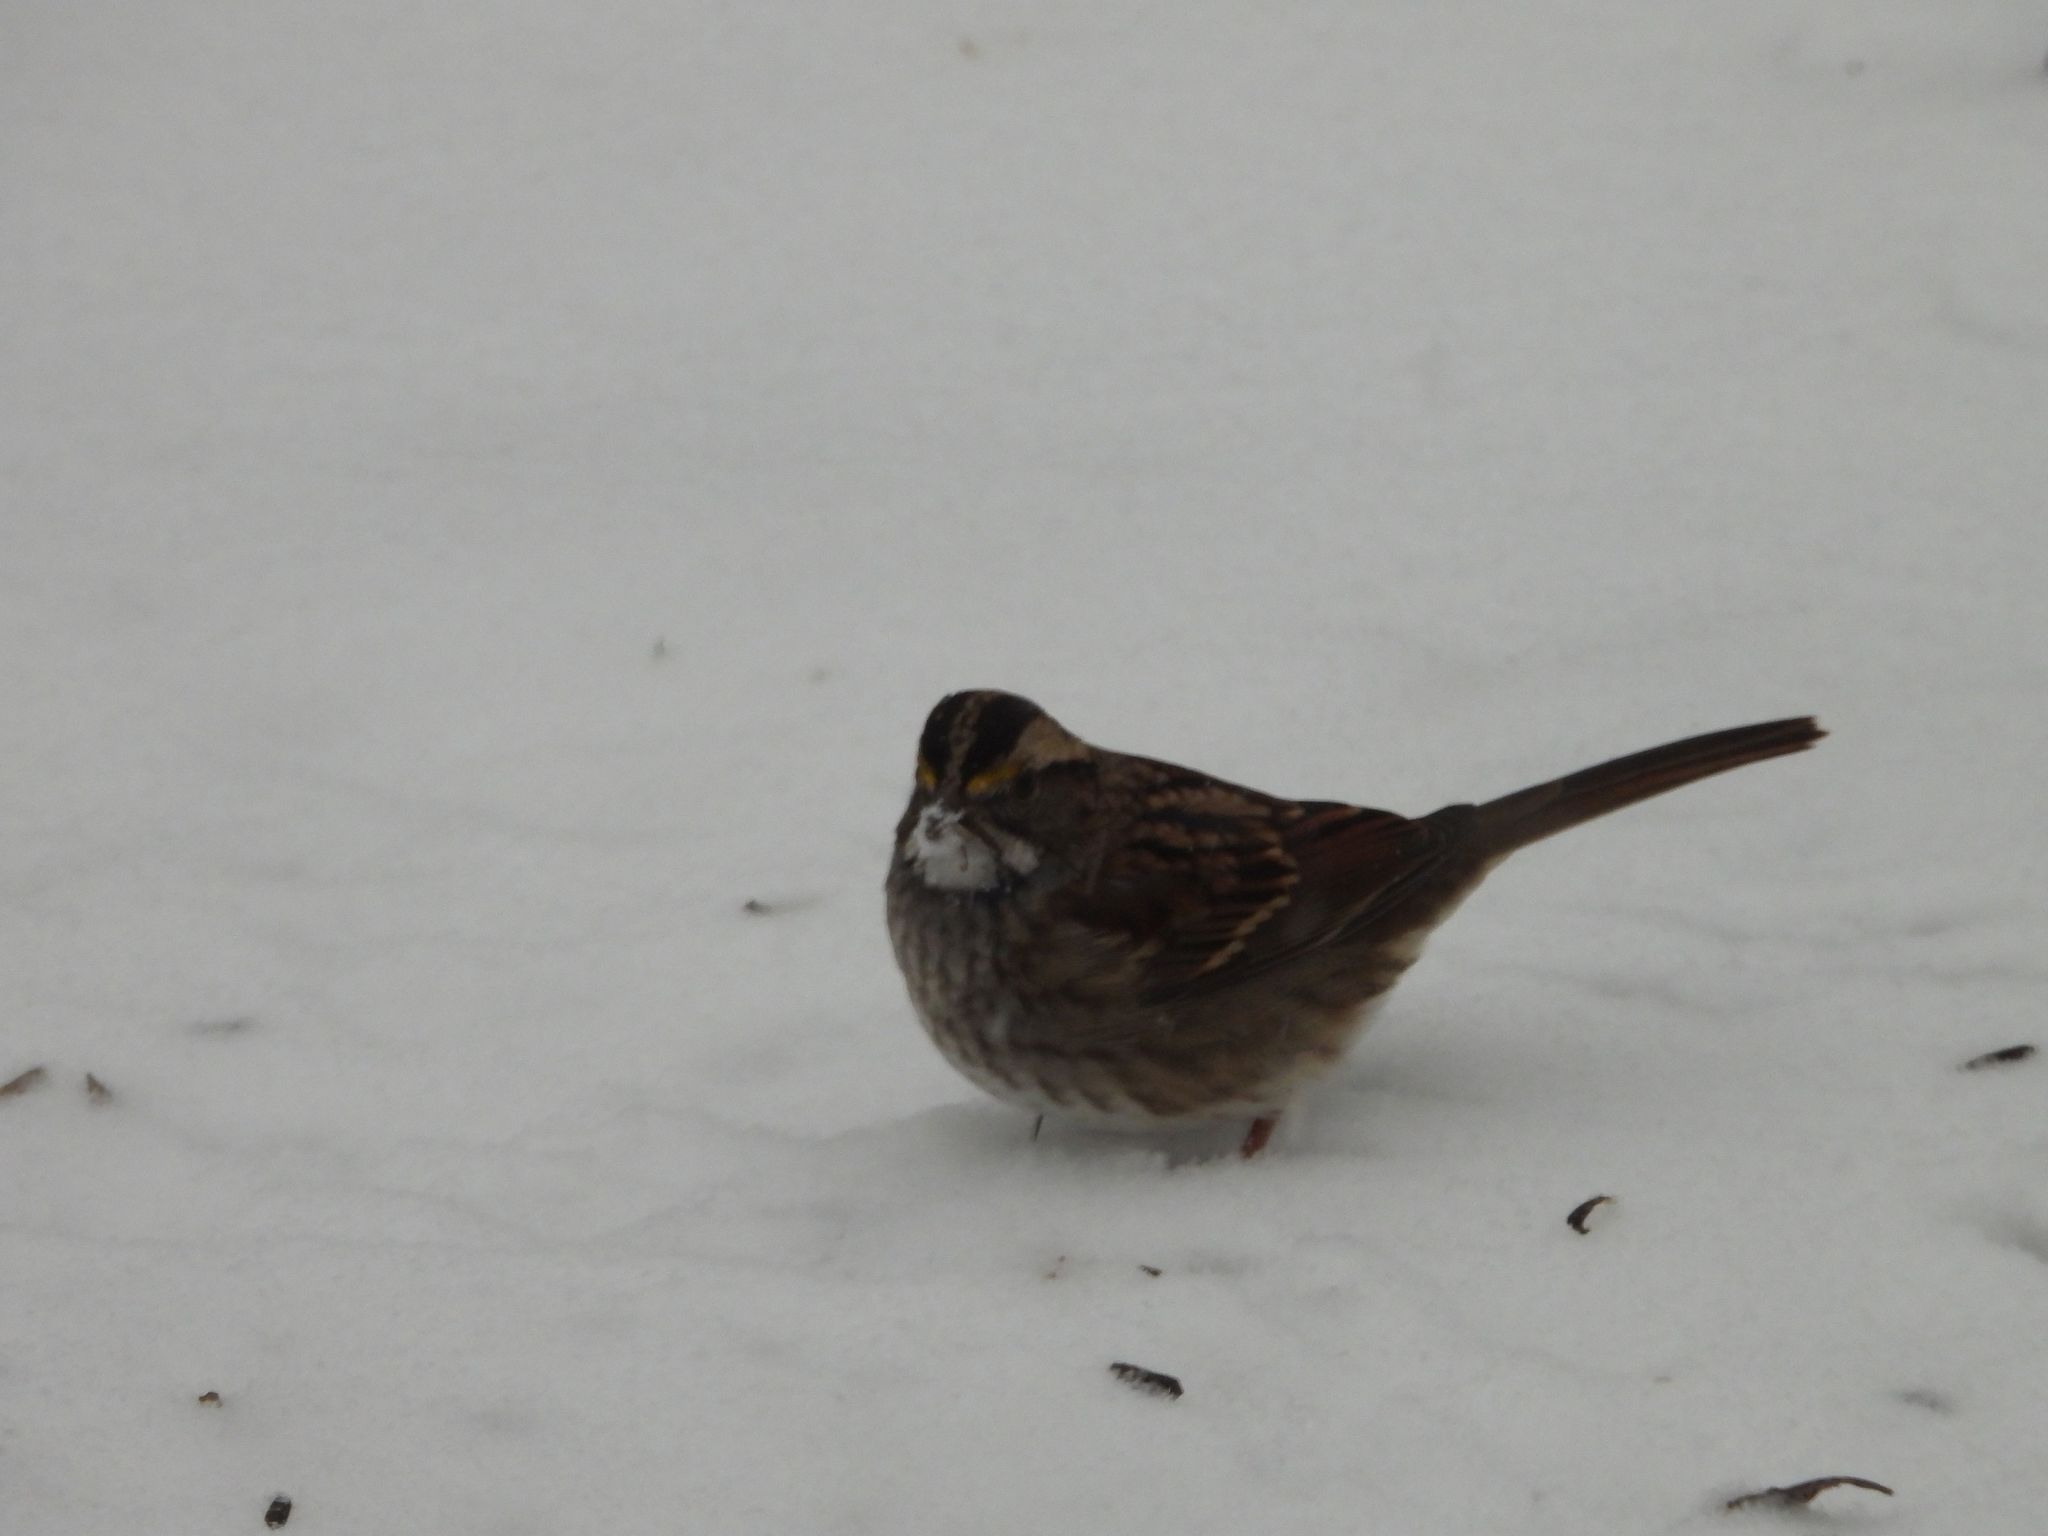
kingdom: Animalia
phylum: Chordata
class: Aves
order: Passeriformes
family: Passerellidae
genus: Zonotrichia
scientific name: Zonotrichia albicollis
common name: White-throated sparrow
